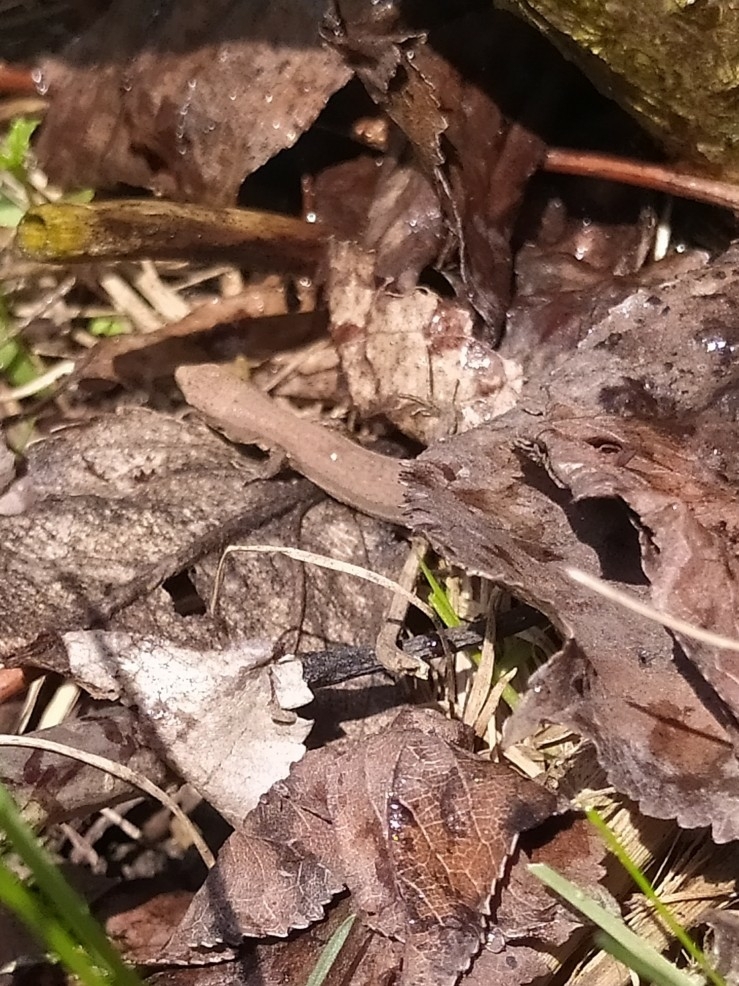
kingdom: Animalia
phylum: Chordata
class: Squamata
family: Lacertidae
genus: Darevskia
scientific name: Darevskia praticola
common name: Meadow lizard
